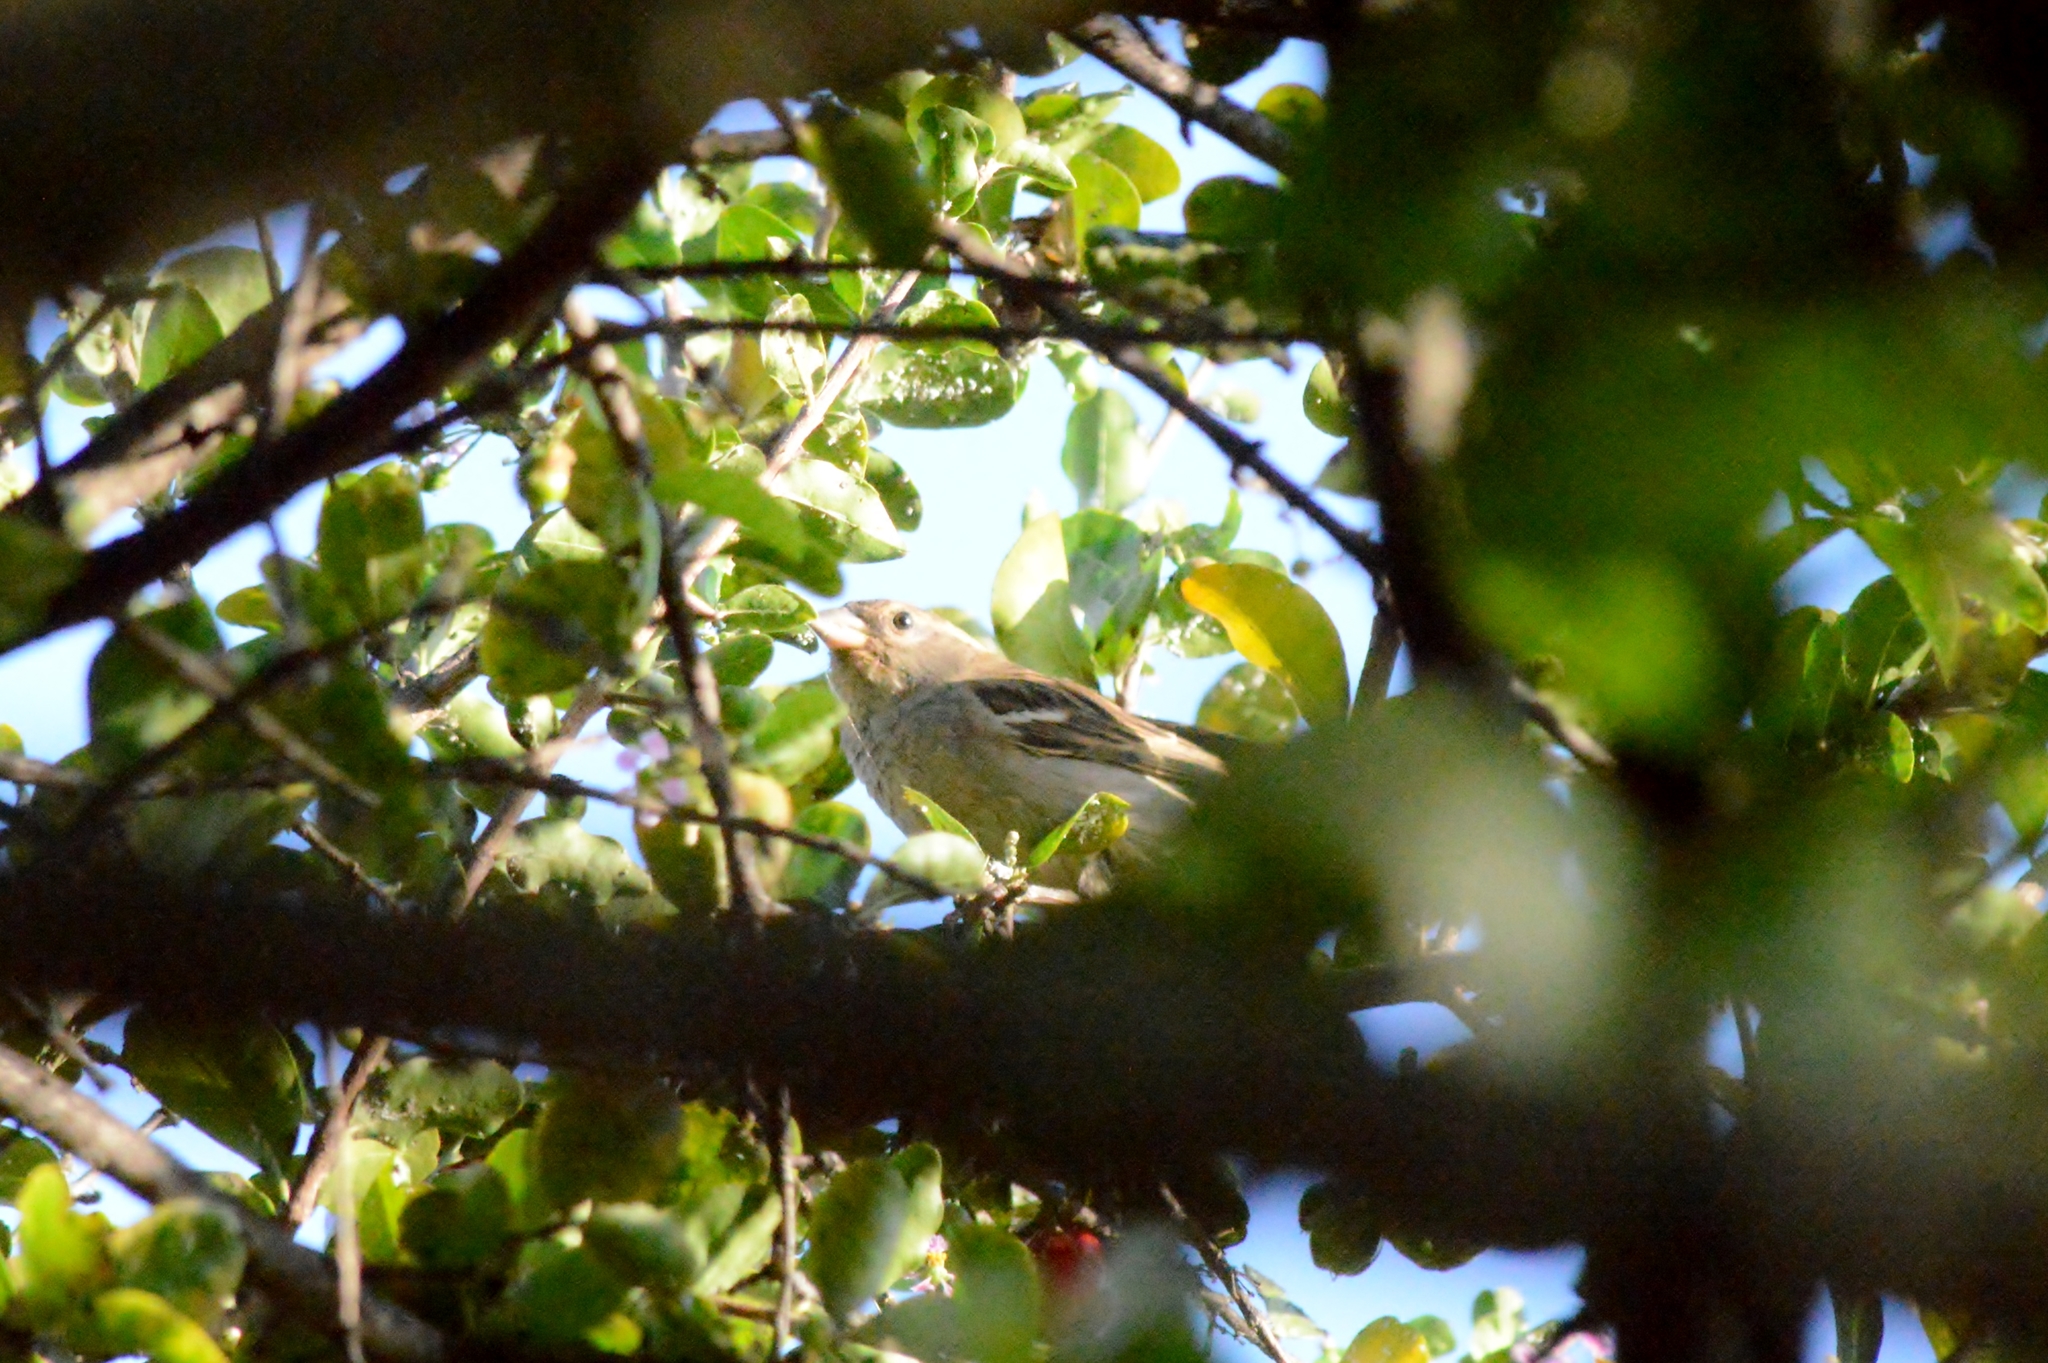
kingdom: Animalia
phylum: Chordata
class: Aves
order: Passeriformes
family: Passeridae
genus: Passer
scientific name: Passer domesticus
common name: House sparrow
